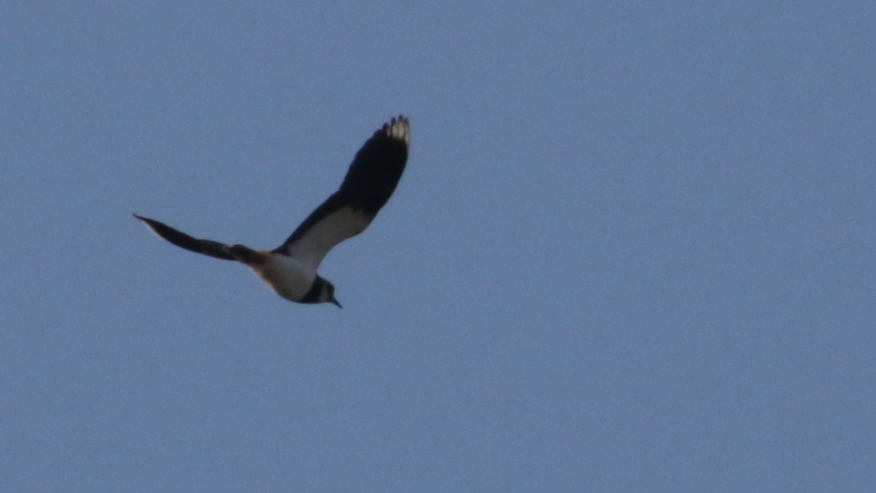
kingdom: Animalia
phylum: Chordata
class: Aves
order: Charadriiformes
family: Charadriidae
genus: Vanellus
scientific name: Vanellus vanellus
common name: Northern lapwing
